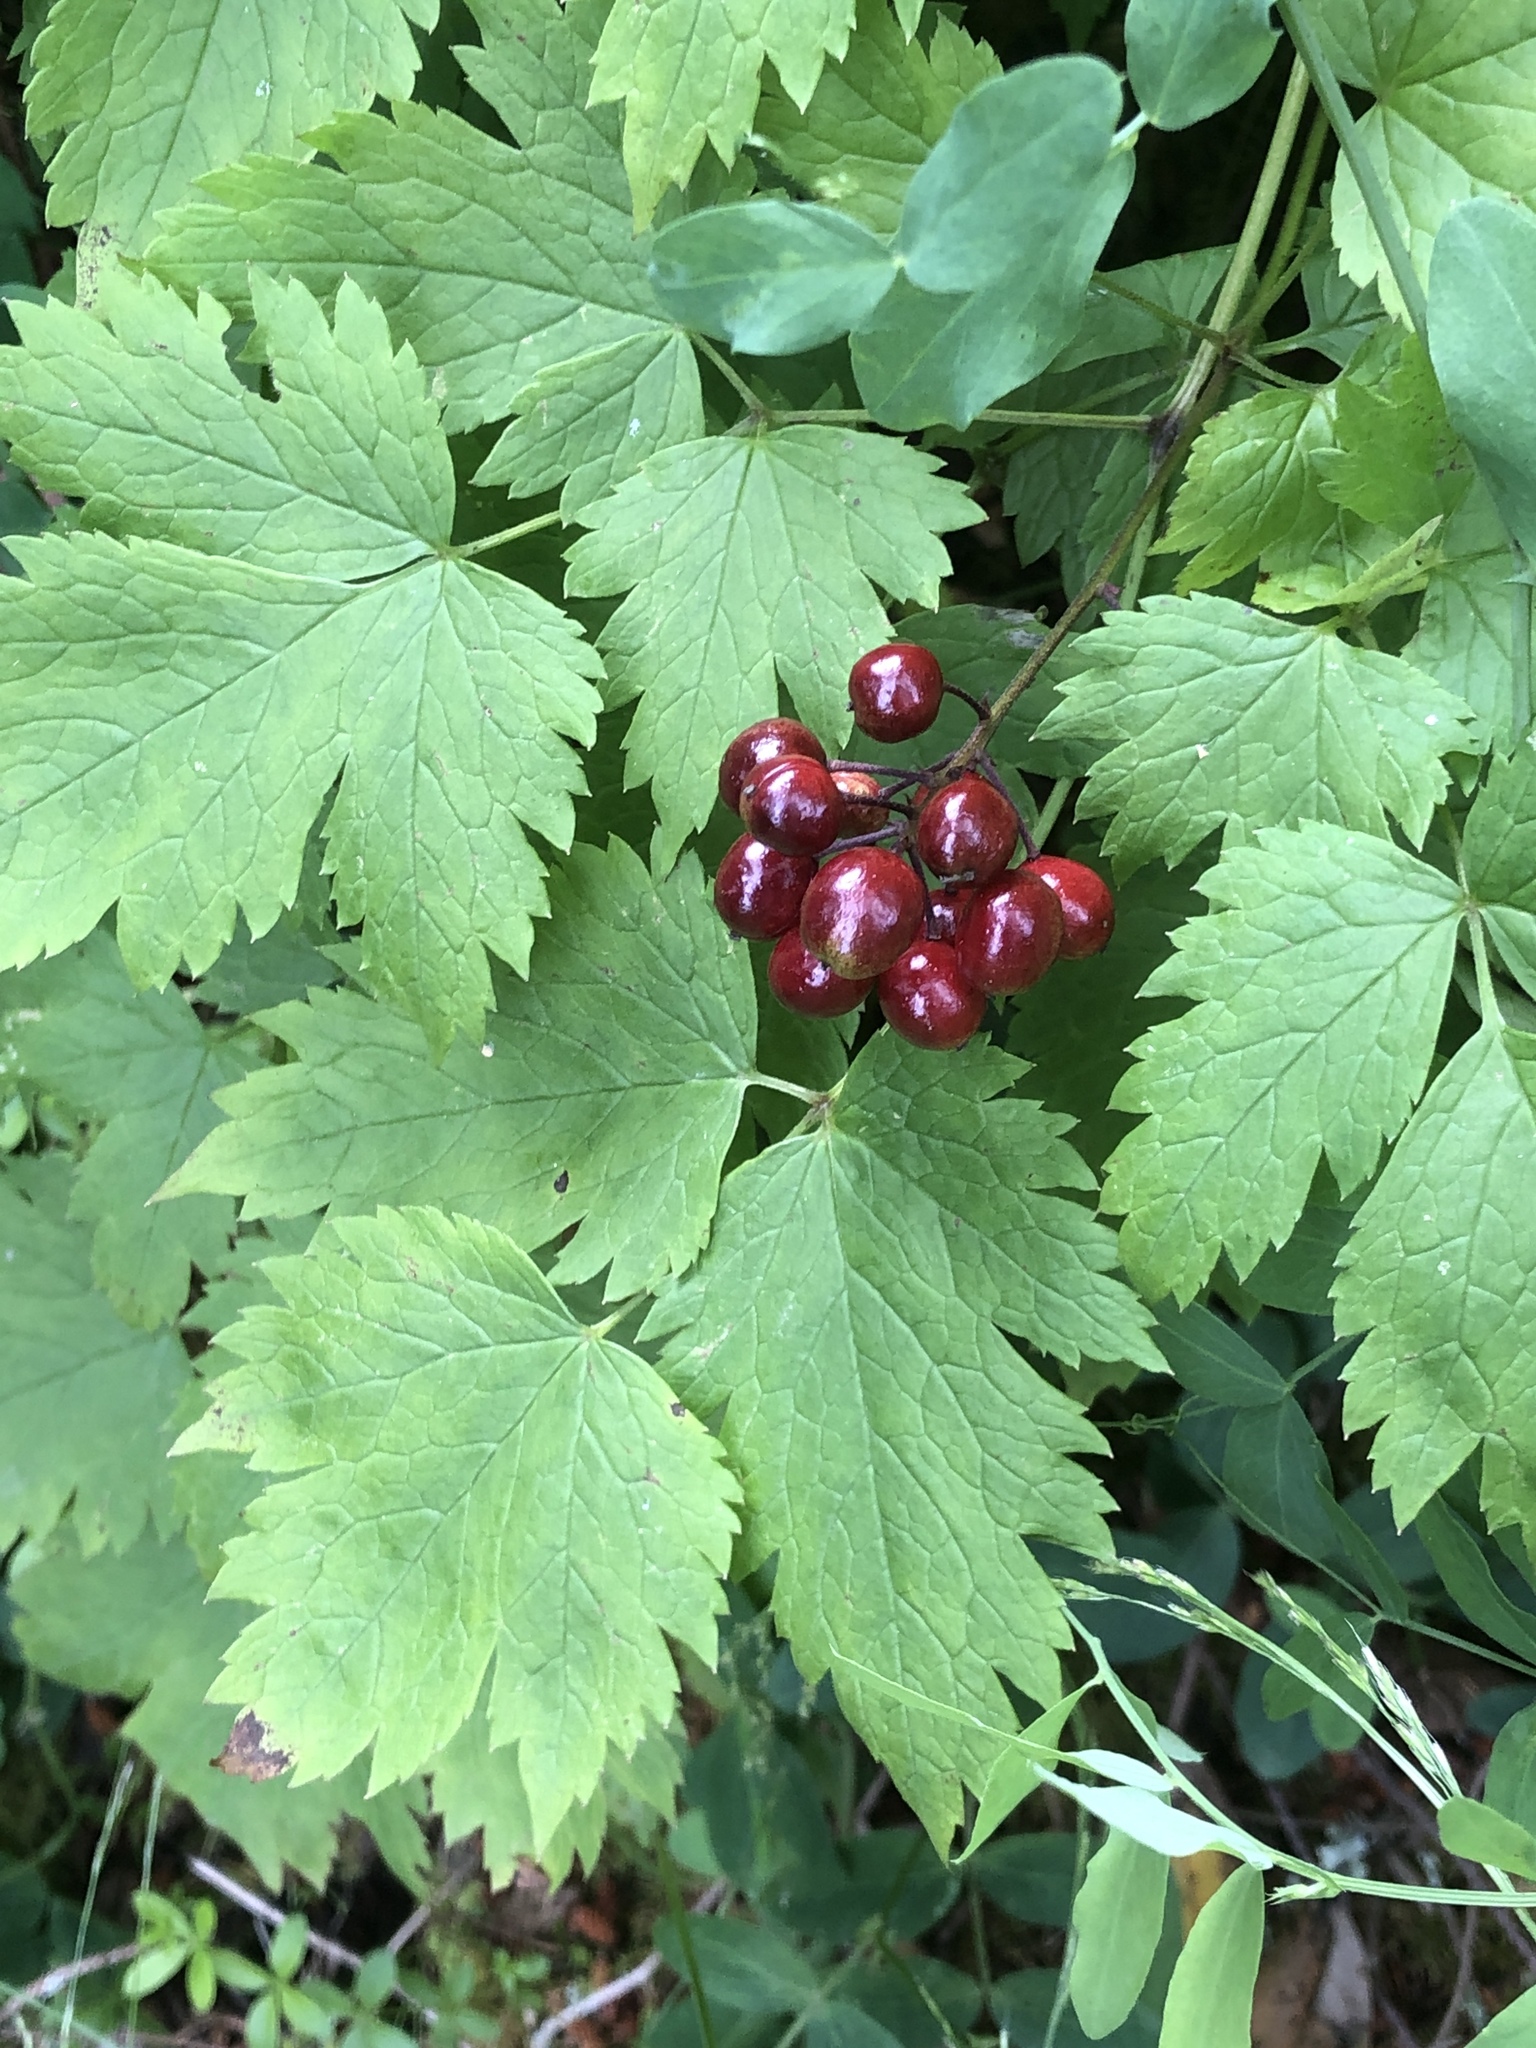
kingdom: Plantae
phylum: Tracheophyta
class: Magnoliopsida
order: Ranunculales
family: Ranunculaceae
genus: Actaea
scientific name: Actaea rubra
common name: Red baneberry
